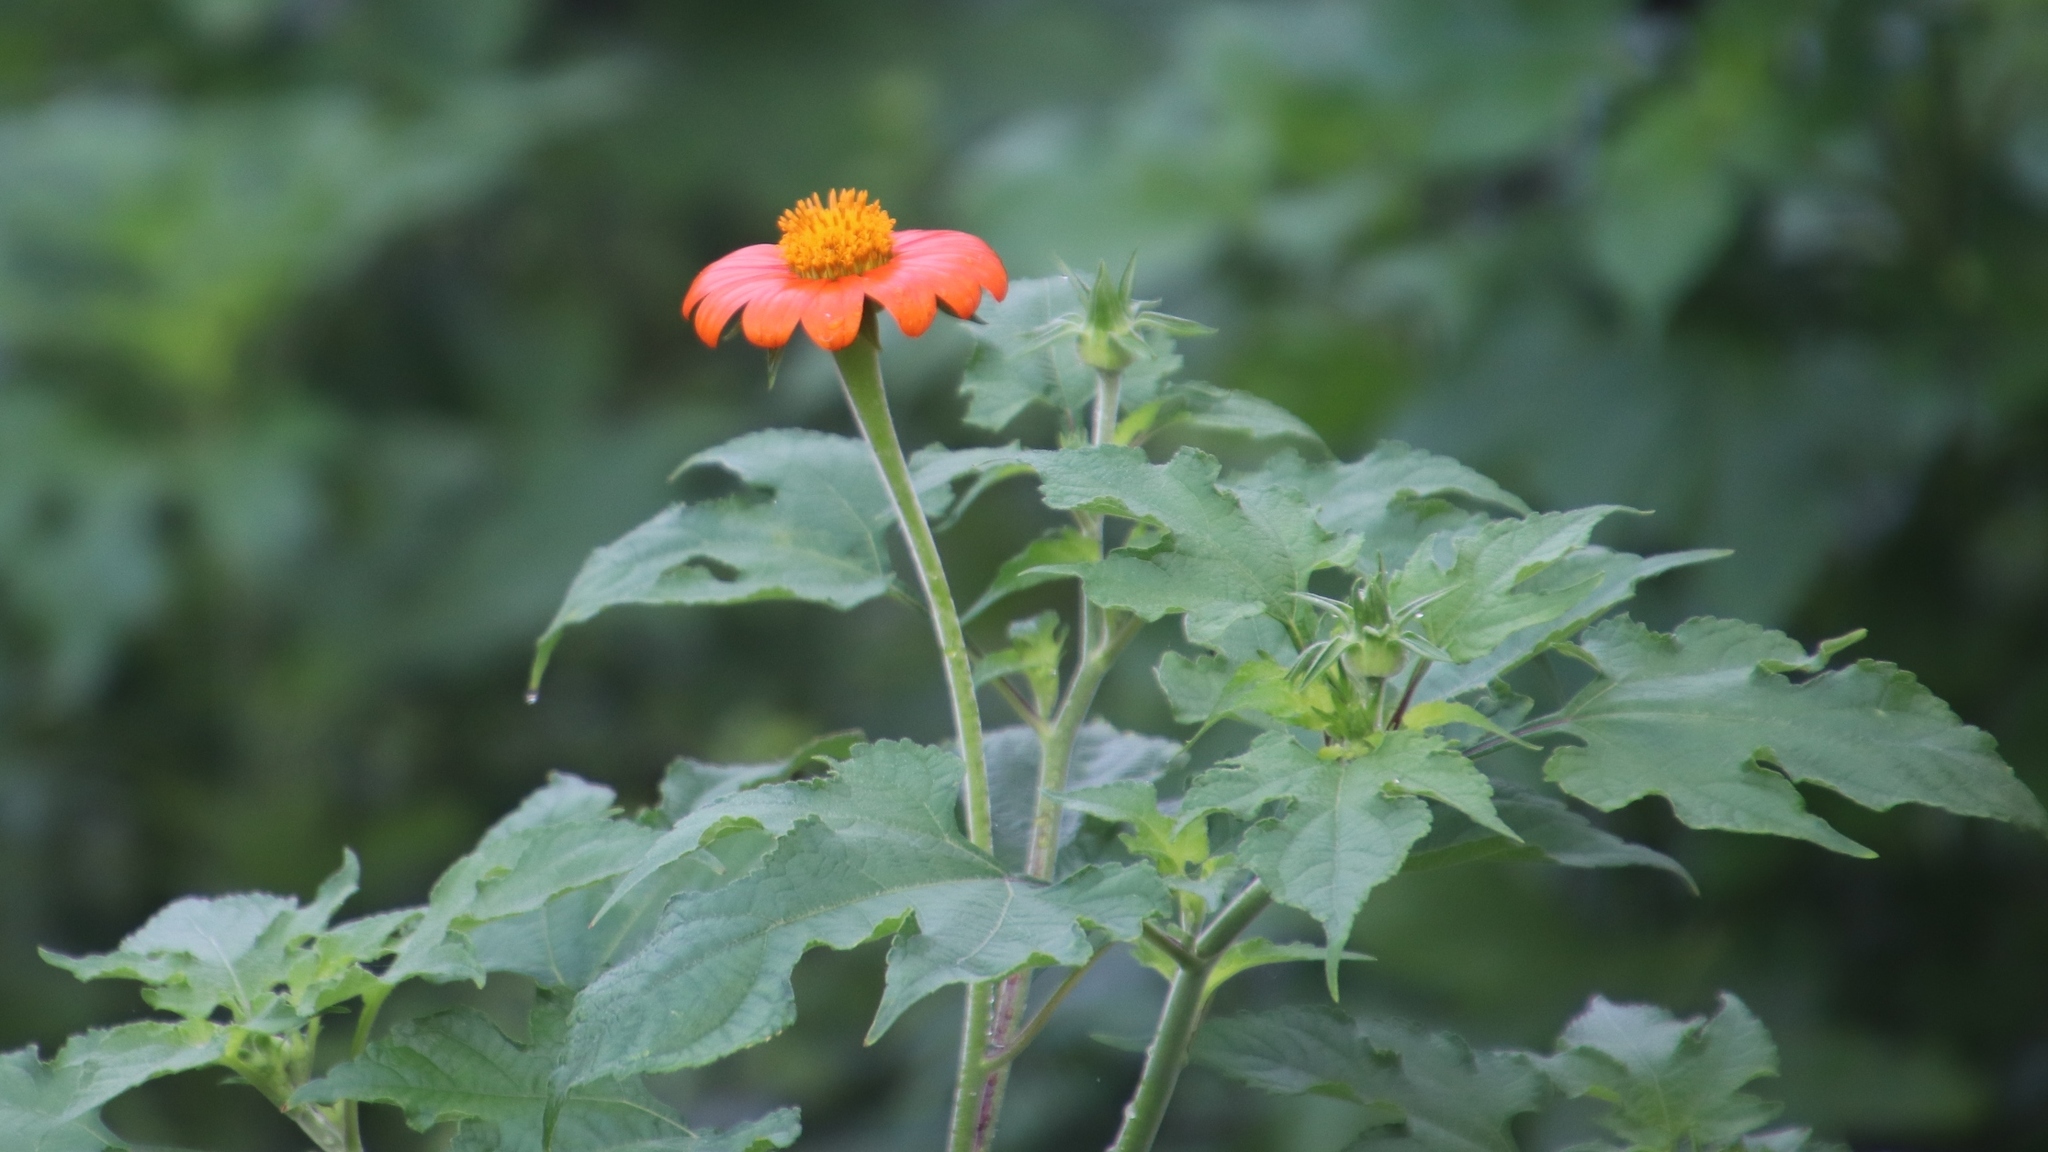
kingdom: Plantae
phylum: Tracheophyta
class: Magnoliopsida
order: Asterales
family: Asteraceae
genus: Tithonia
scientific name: Tithonia rotundifolia
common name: Sunflower
